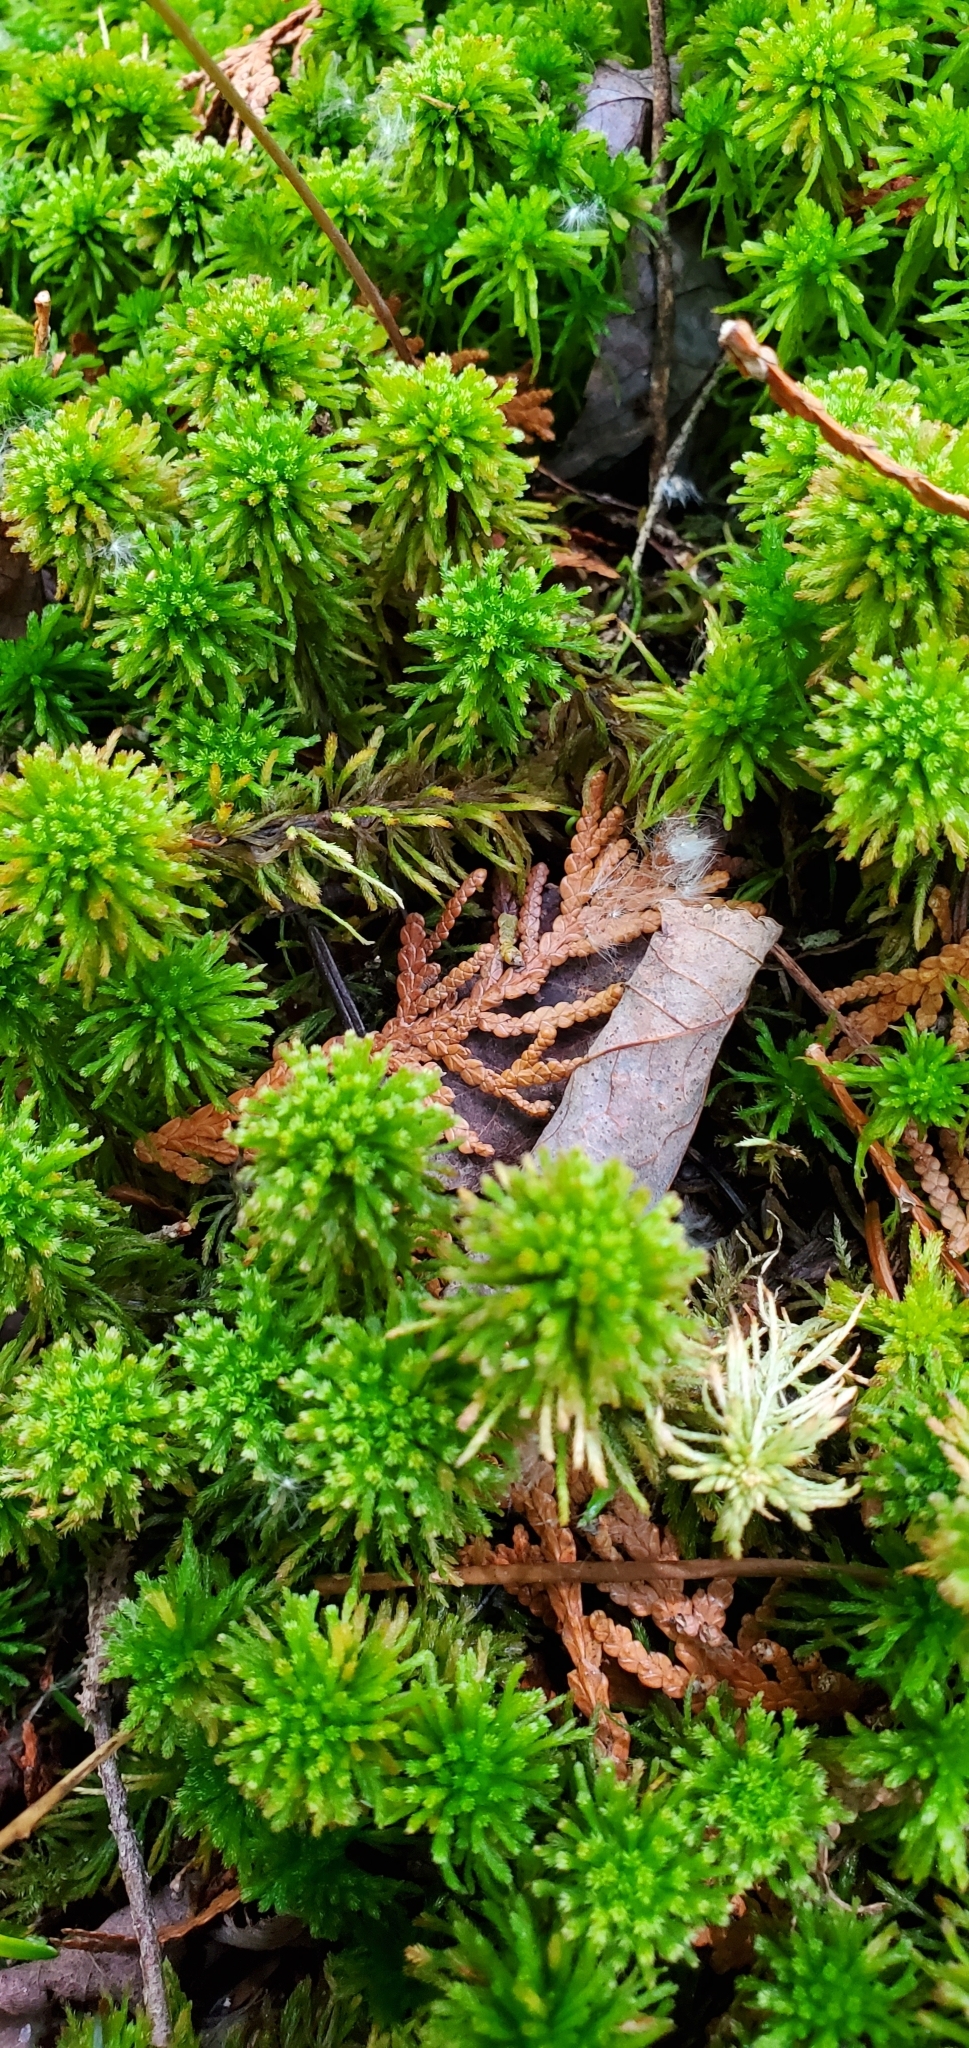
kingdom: Plantae
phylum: Bryophyta
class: Sphagnopsida
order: Sphagnales
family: Sphagnaceae
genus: Sphagnum
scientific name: Sphagnum wulfianum
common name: Wulf's peat moss
